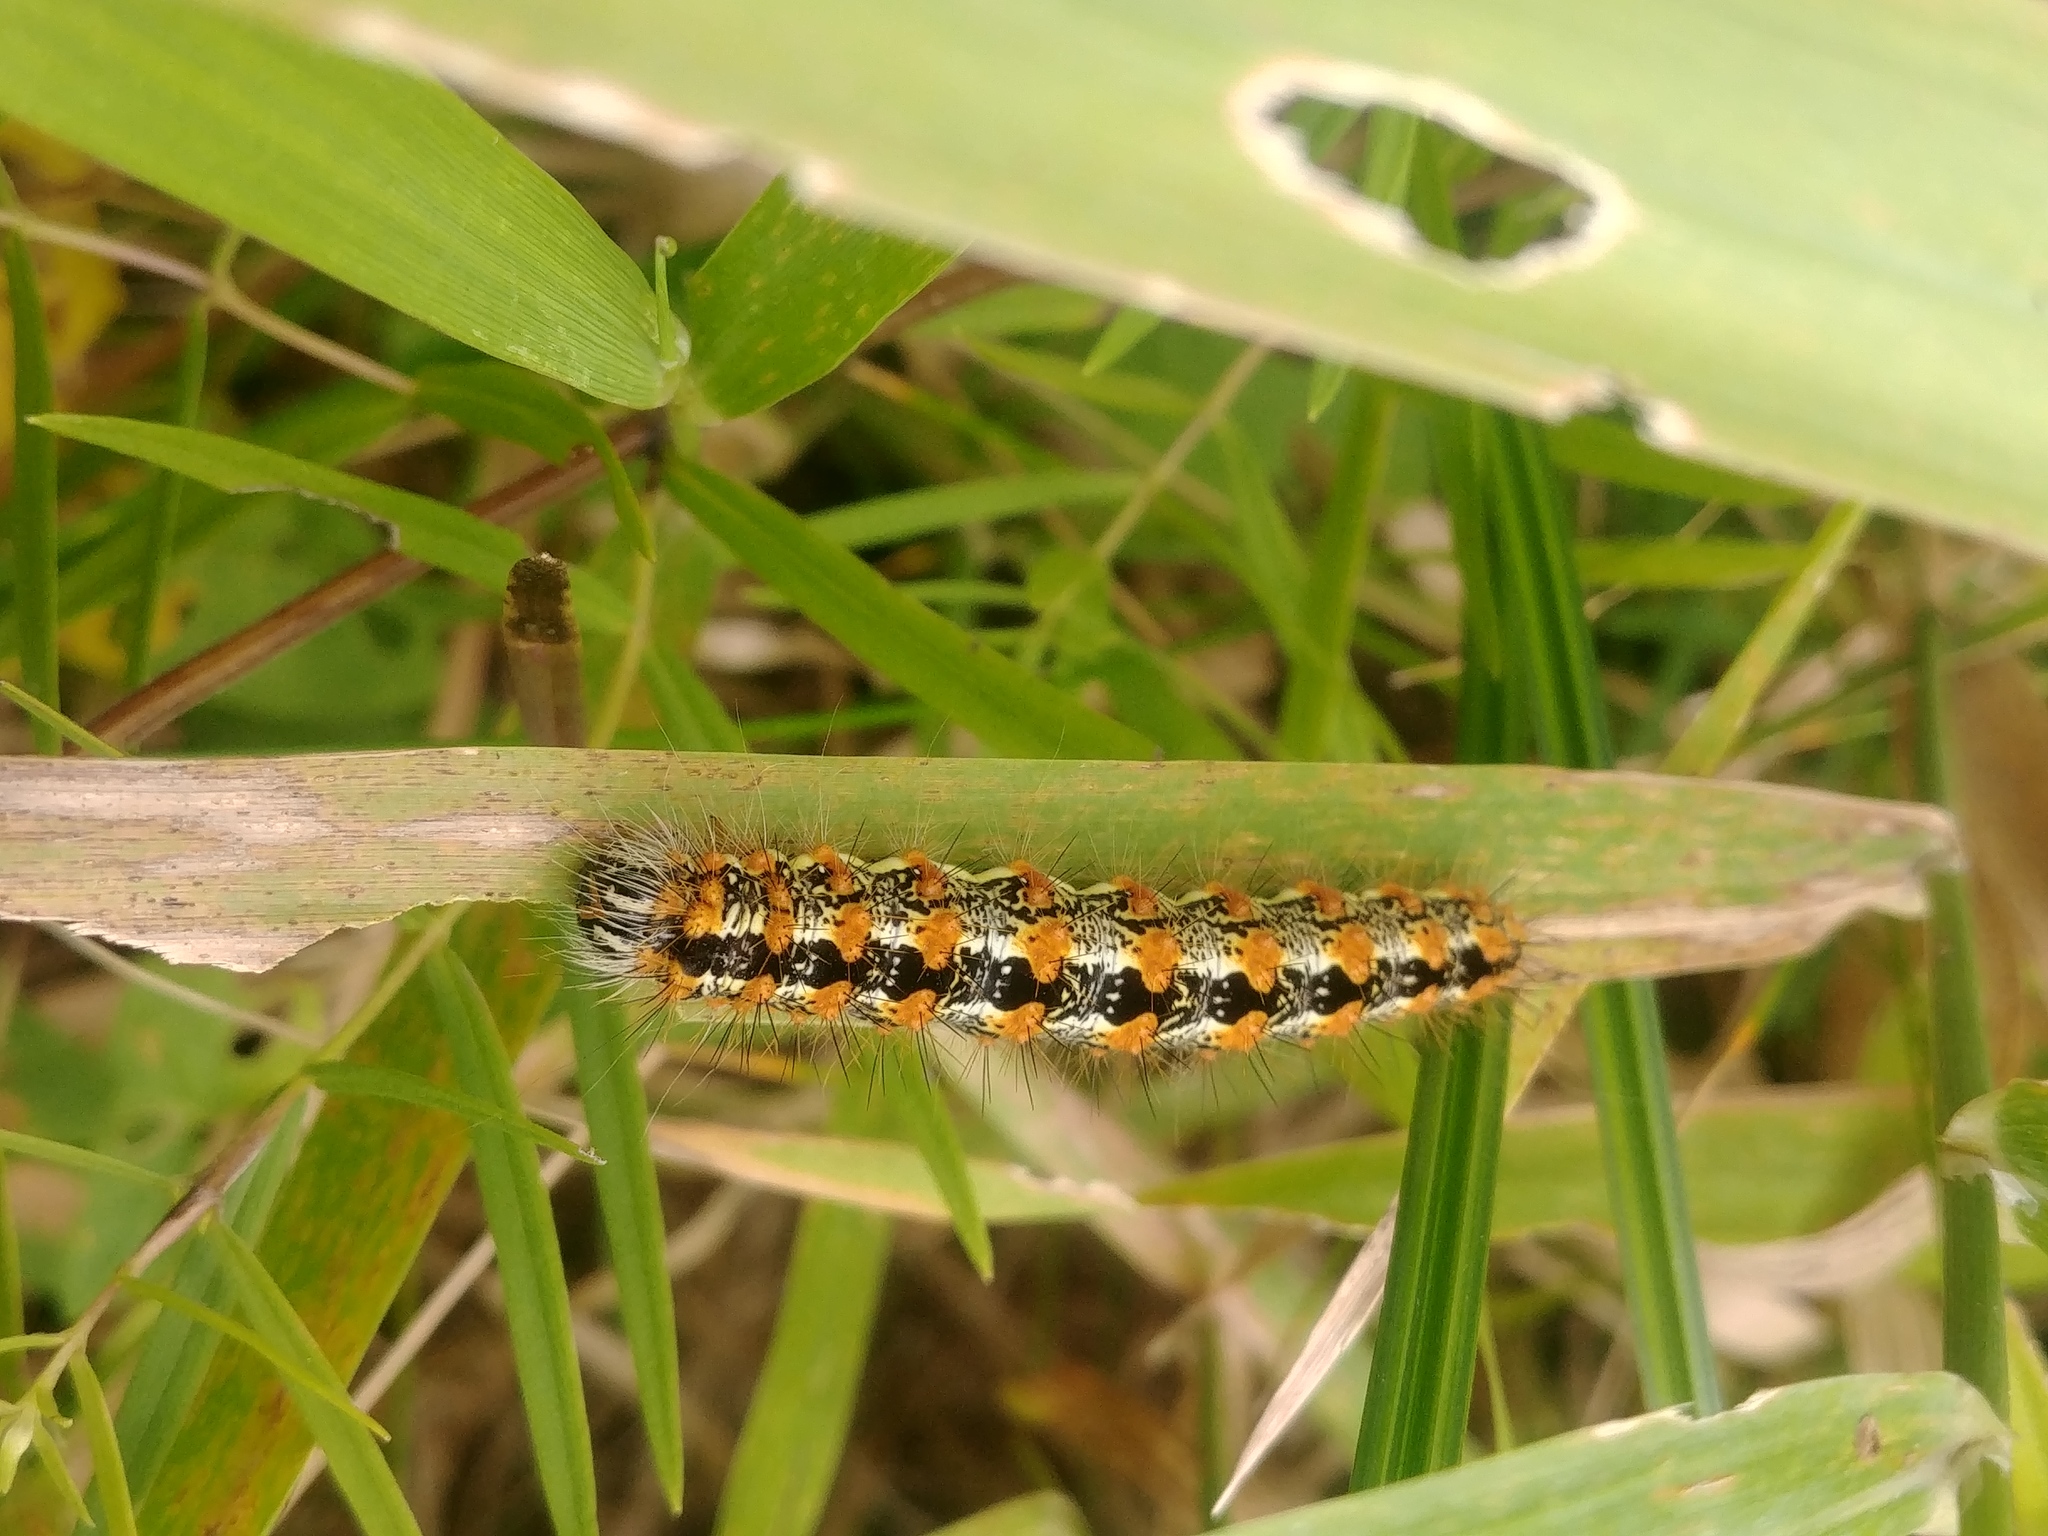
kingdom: Animalia
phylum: Arthropoda
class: Insecta
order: Lepidoptera
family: Noctuidae
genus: Acronicta
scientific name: Acronicta insularis
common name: Henry's marsh moth
